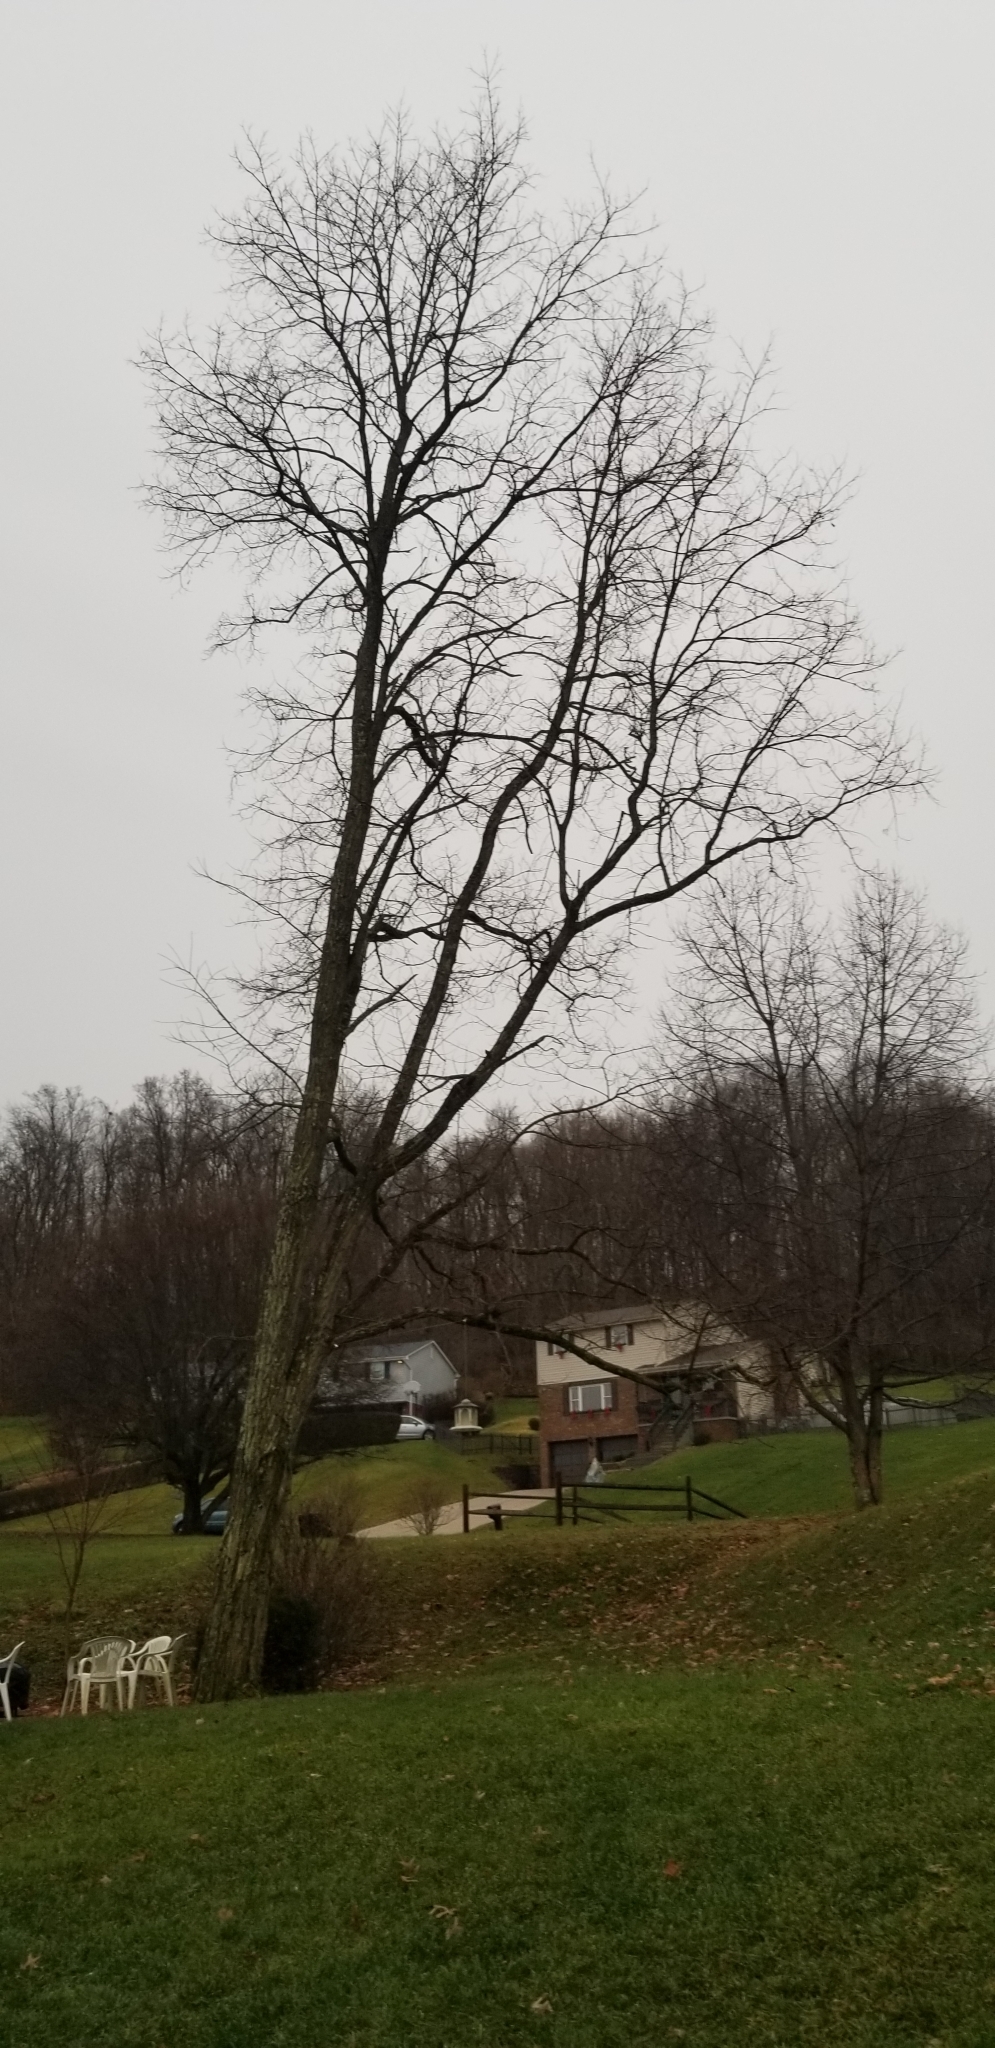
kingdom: Plantae
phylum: Tracheophyta
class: Magnoliopsida
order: Fabales
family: Fabaceae
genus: Robinia
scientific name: Robinia pseudoacacia
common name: Black locust
